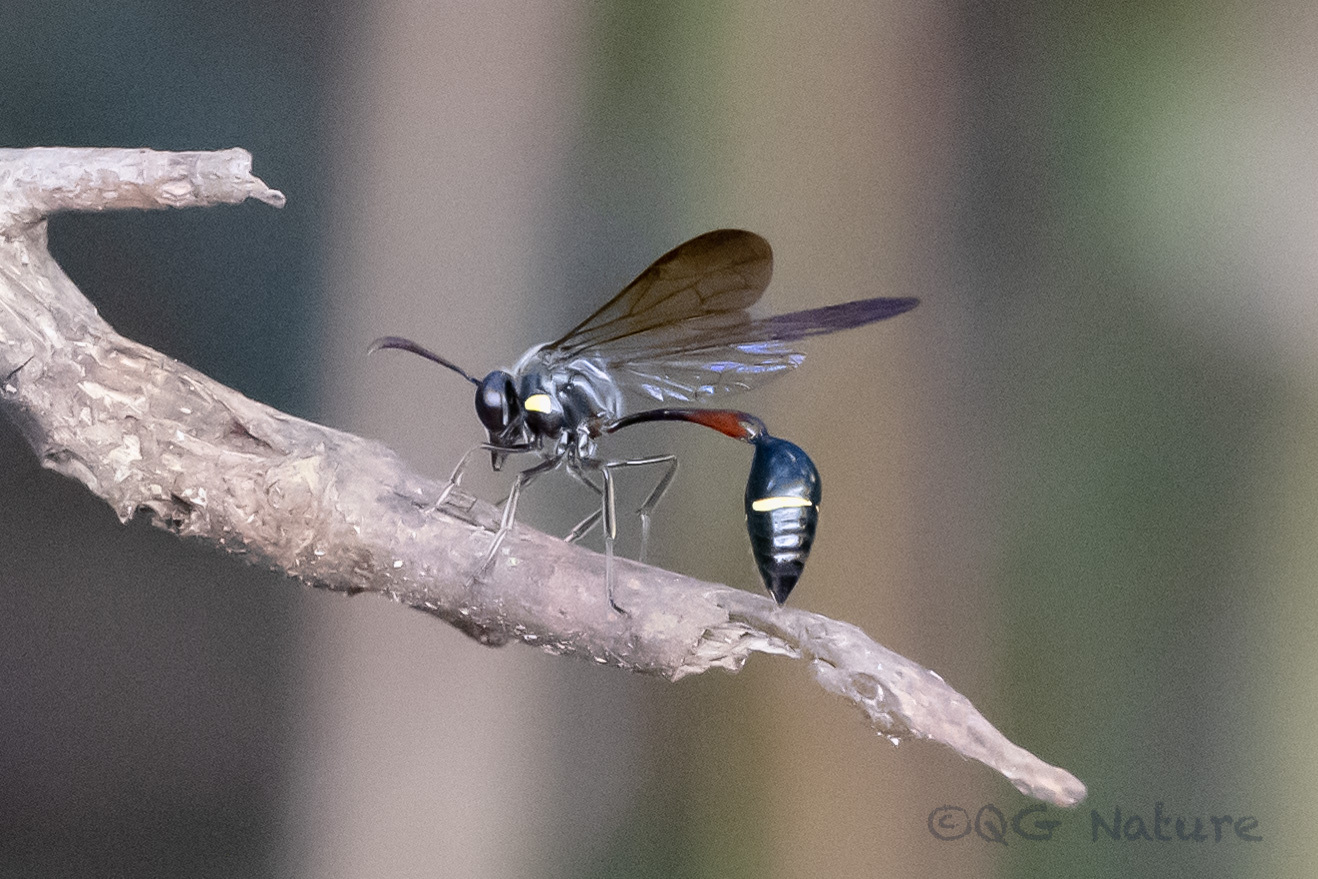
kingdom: Animalia
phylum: Arthropoda
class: Insecta
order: Hymenoptera
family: Vespidae
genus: Eustenogaster
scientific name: Eustenogaster nigra
